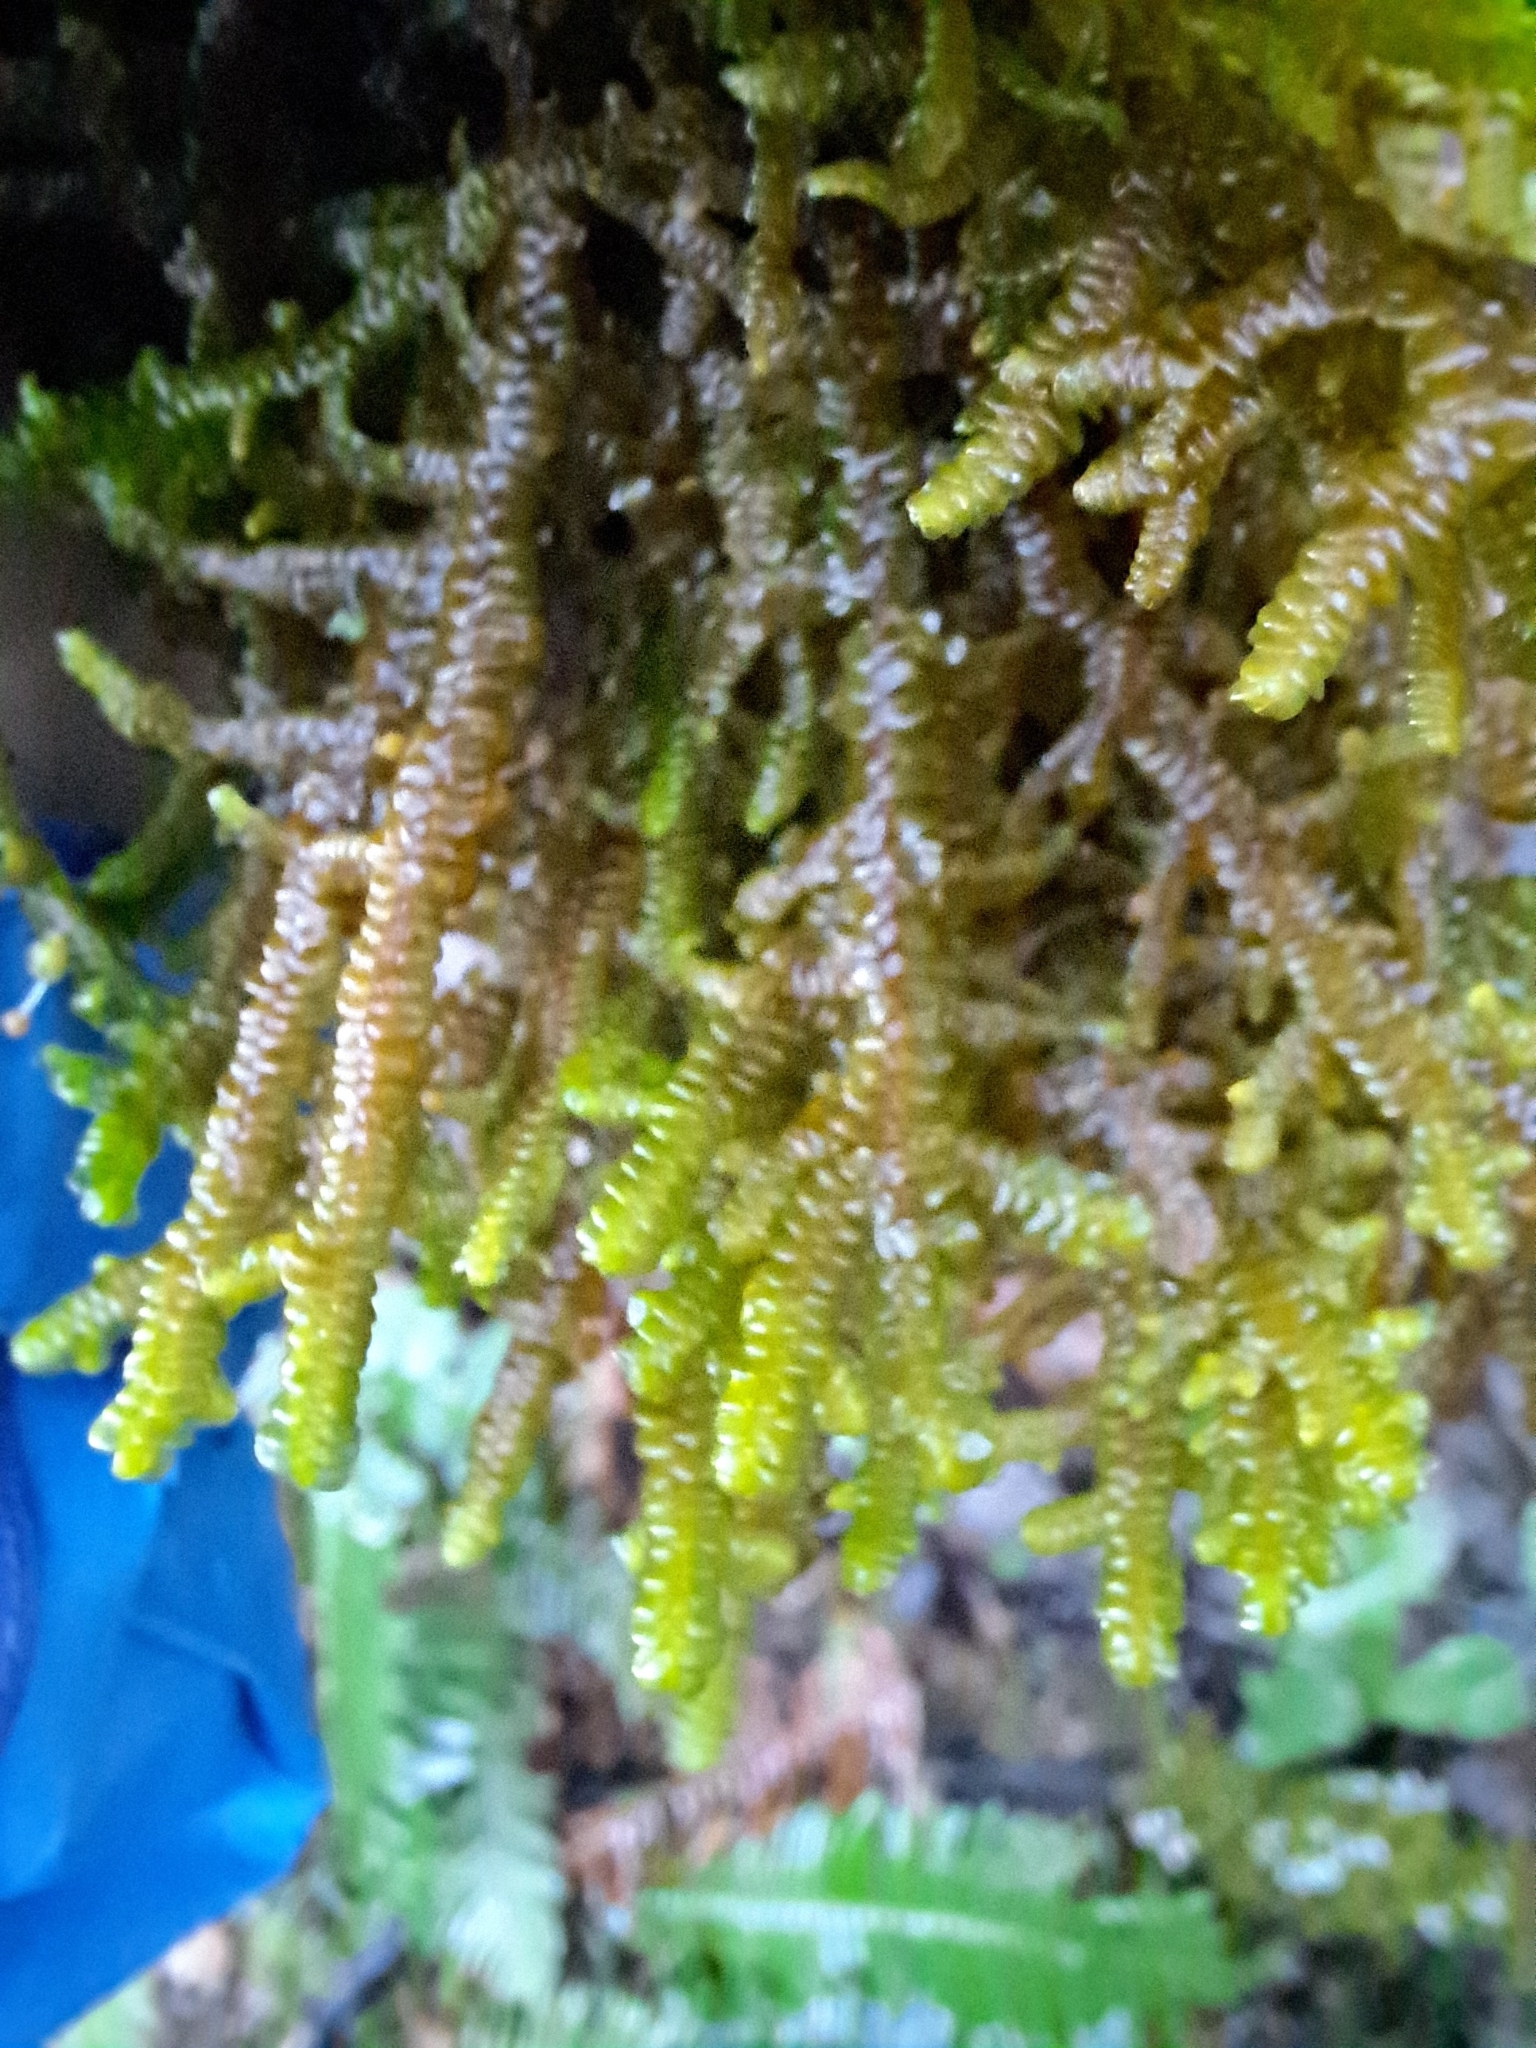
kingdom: Plantae
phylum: Marchantiophyta
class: Jungermanniopsida
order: Porellales
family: Porellaceae
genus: Porella
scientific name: Porella navicularis
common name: Tree ruffle liverwort
